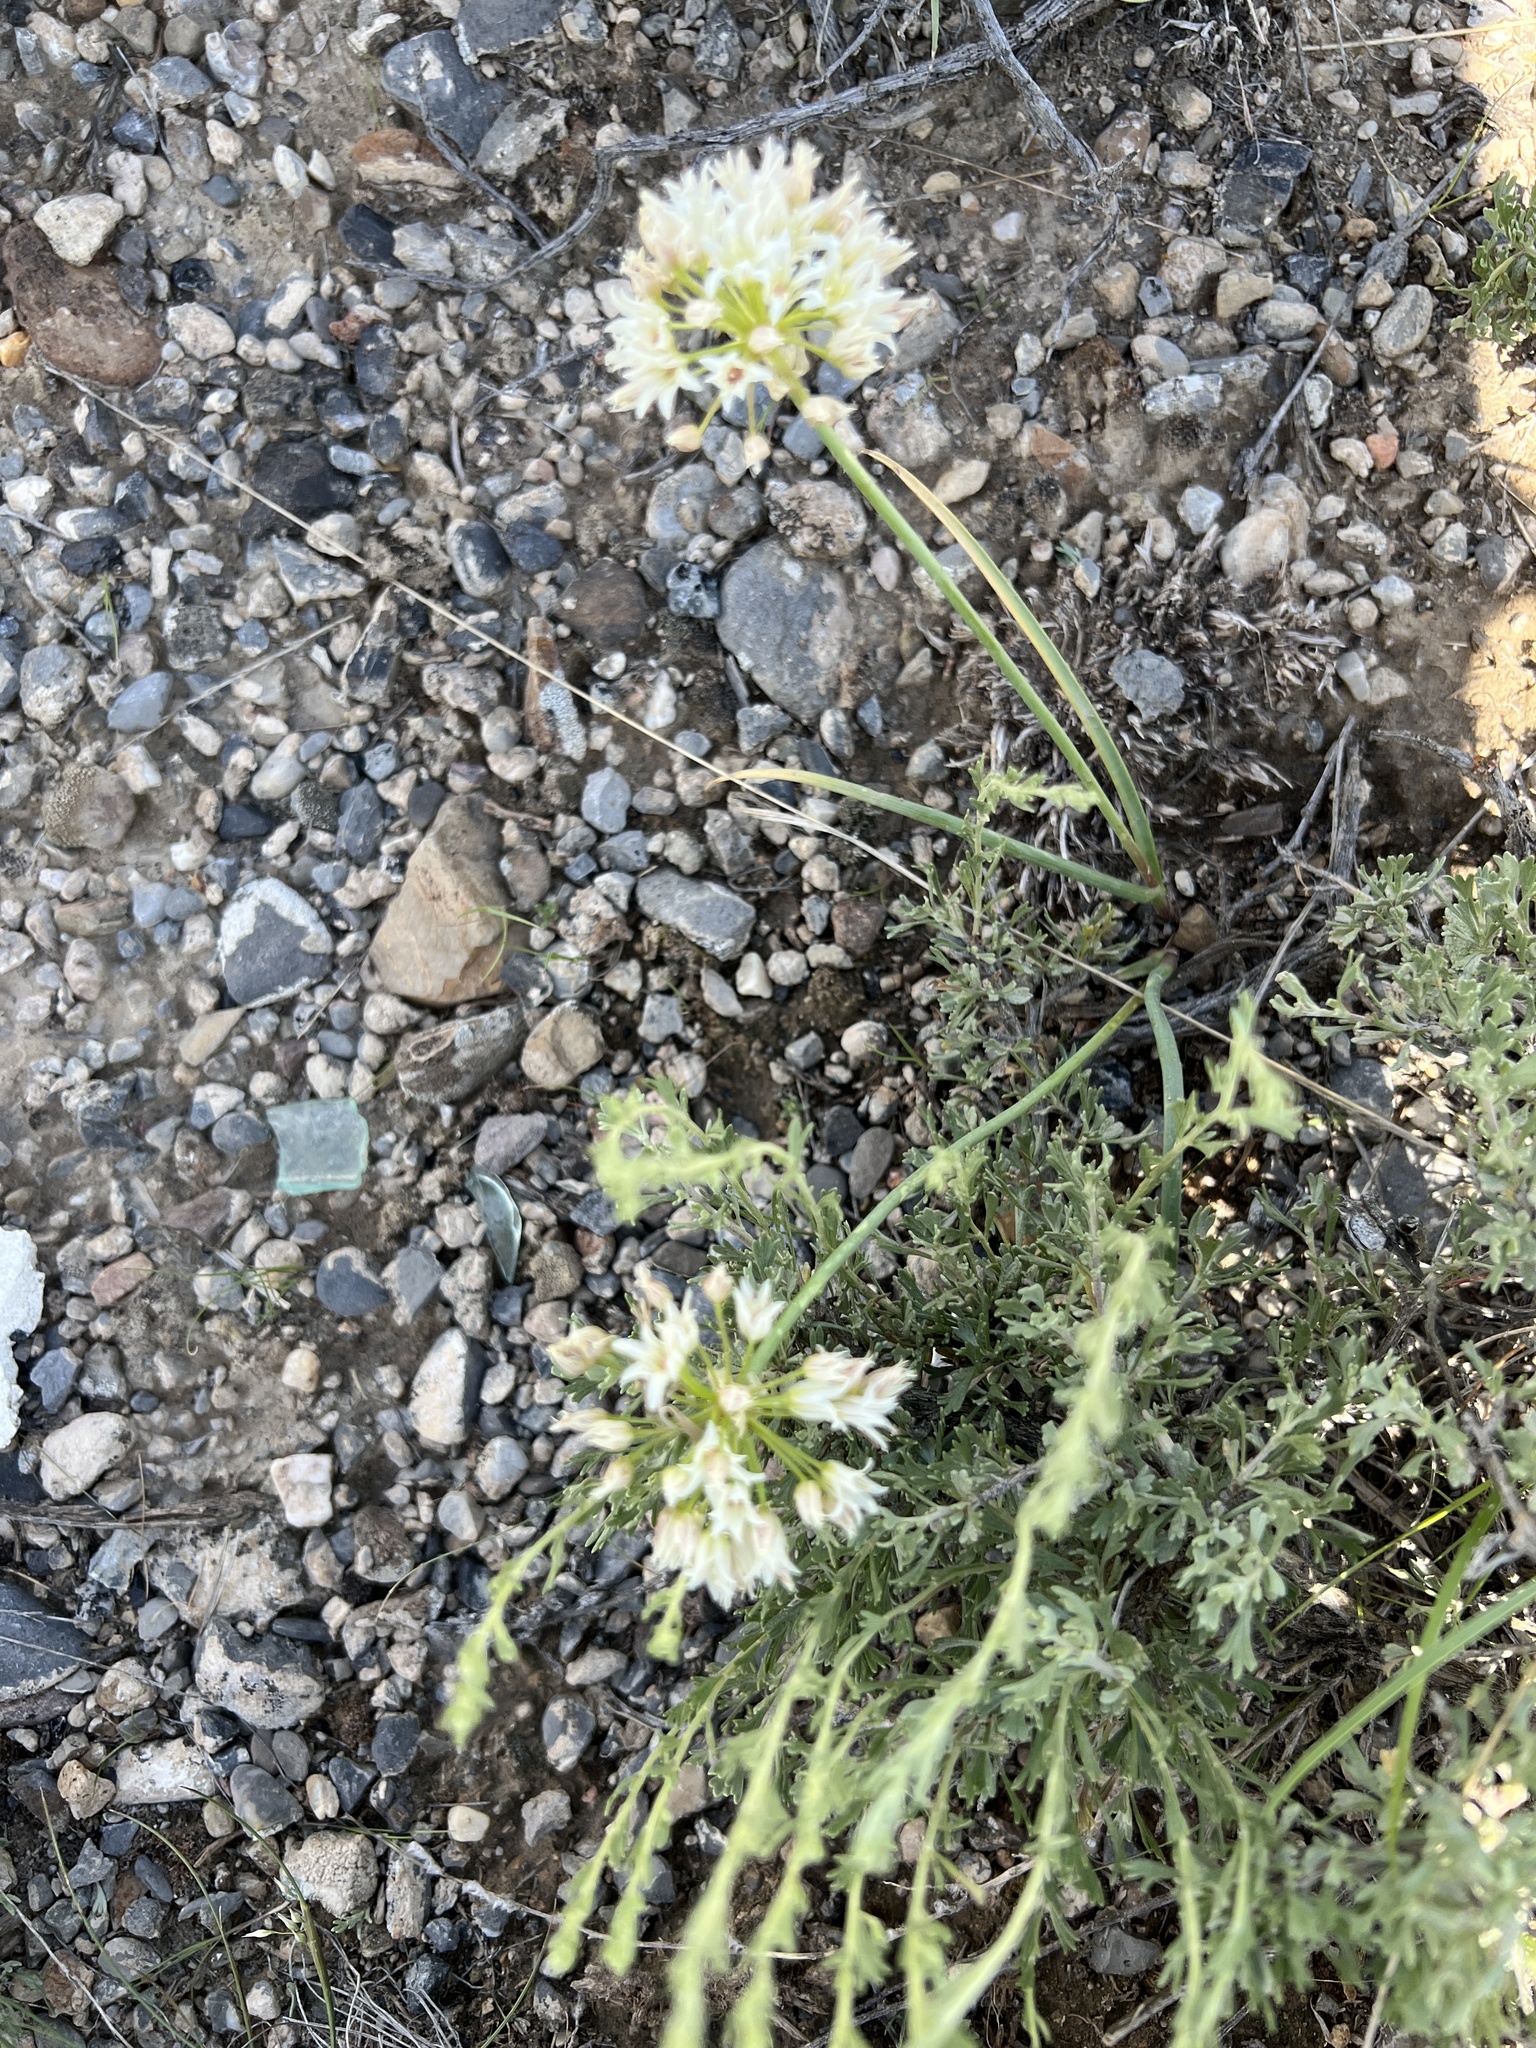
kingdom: Plantae
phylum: Tracheophyta
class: Liliopsida
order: Asparagales
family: Amaryllidaceae
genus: Allium
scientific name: Allium textile
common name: Prairie onion
